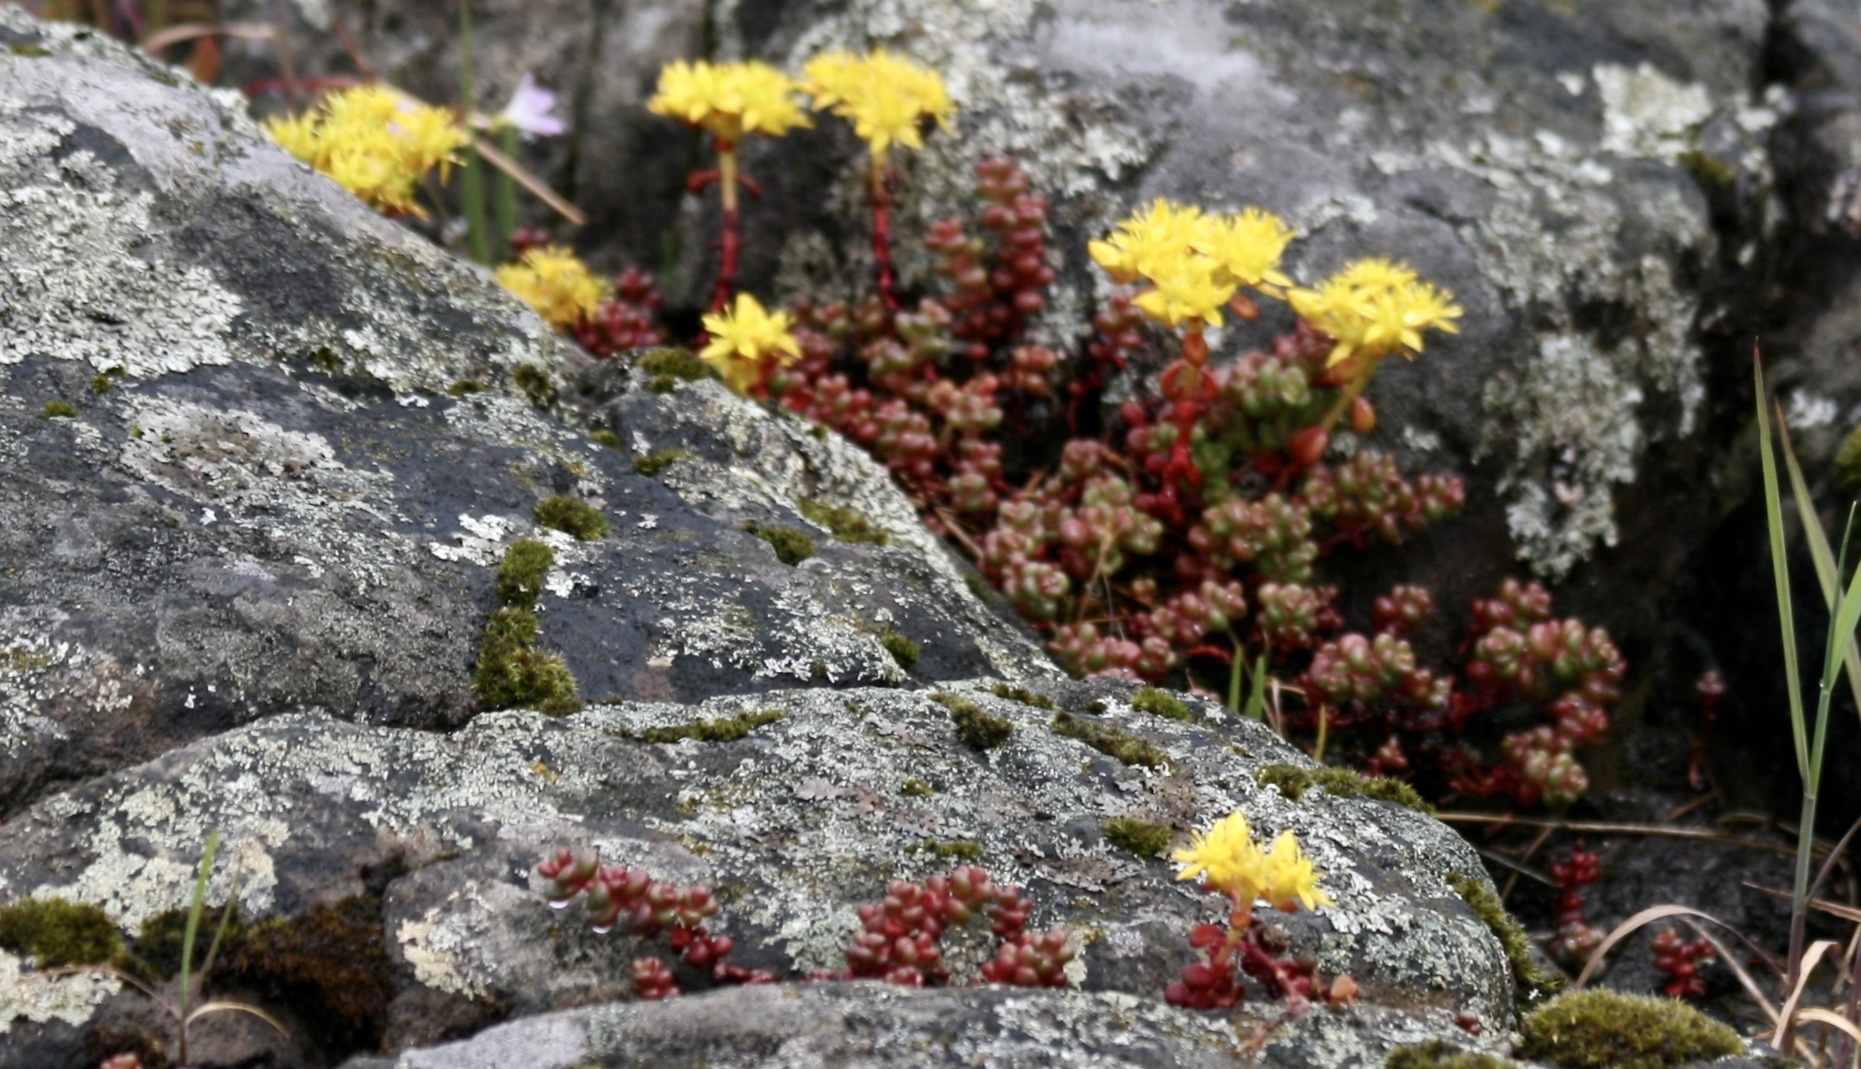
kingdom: Plantae
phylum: Tracheophyta
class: Magnoliopsida
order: Saxifragales
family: Crassulaceae
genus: Sedum
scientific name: Sedum divergens
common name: Cascade stonecrop
